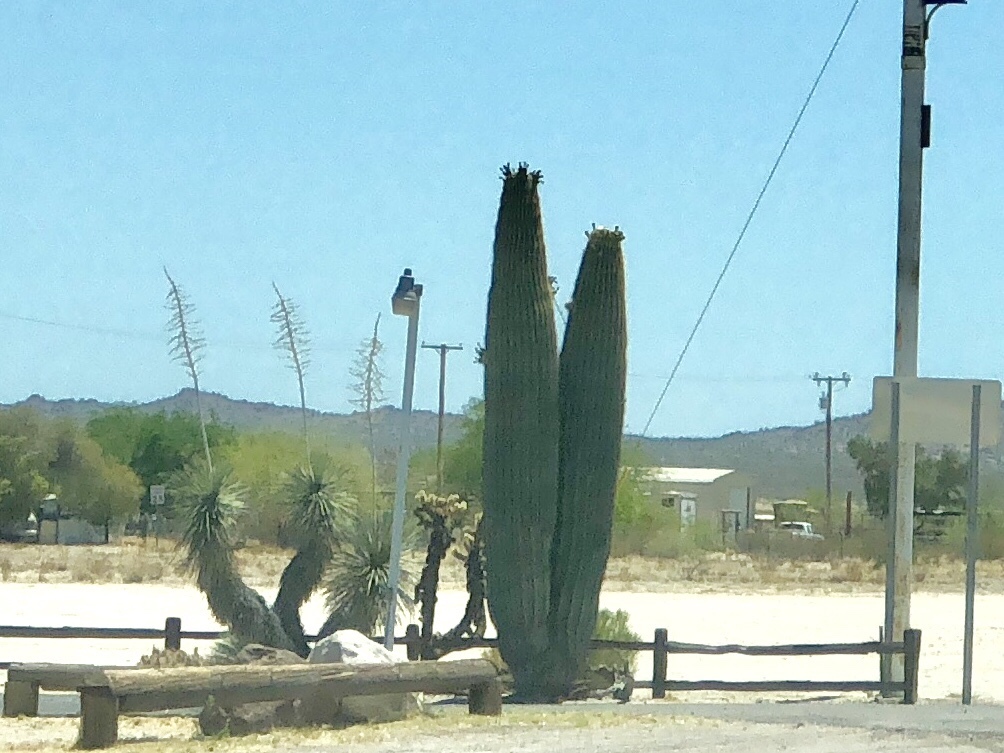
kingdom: Plantae
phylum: Tracheophyta
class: Magnoliopsida
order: Caryophyllales
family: Cactaceae
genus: Carnegiea
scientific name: Carnegiea gigantea
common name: Saguaro
